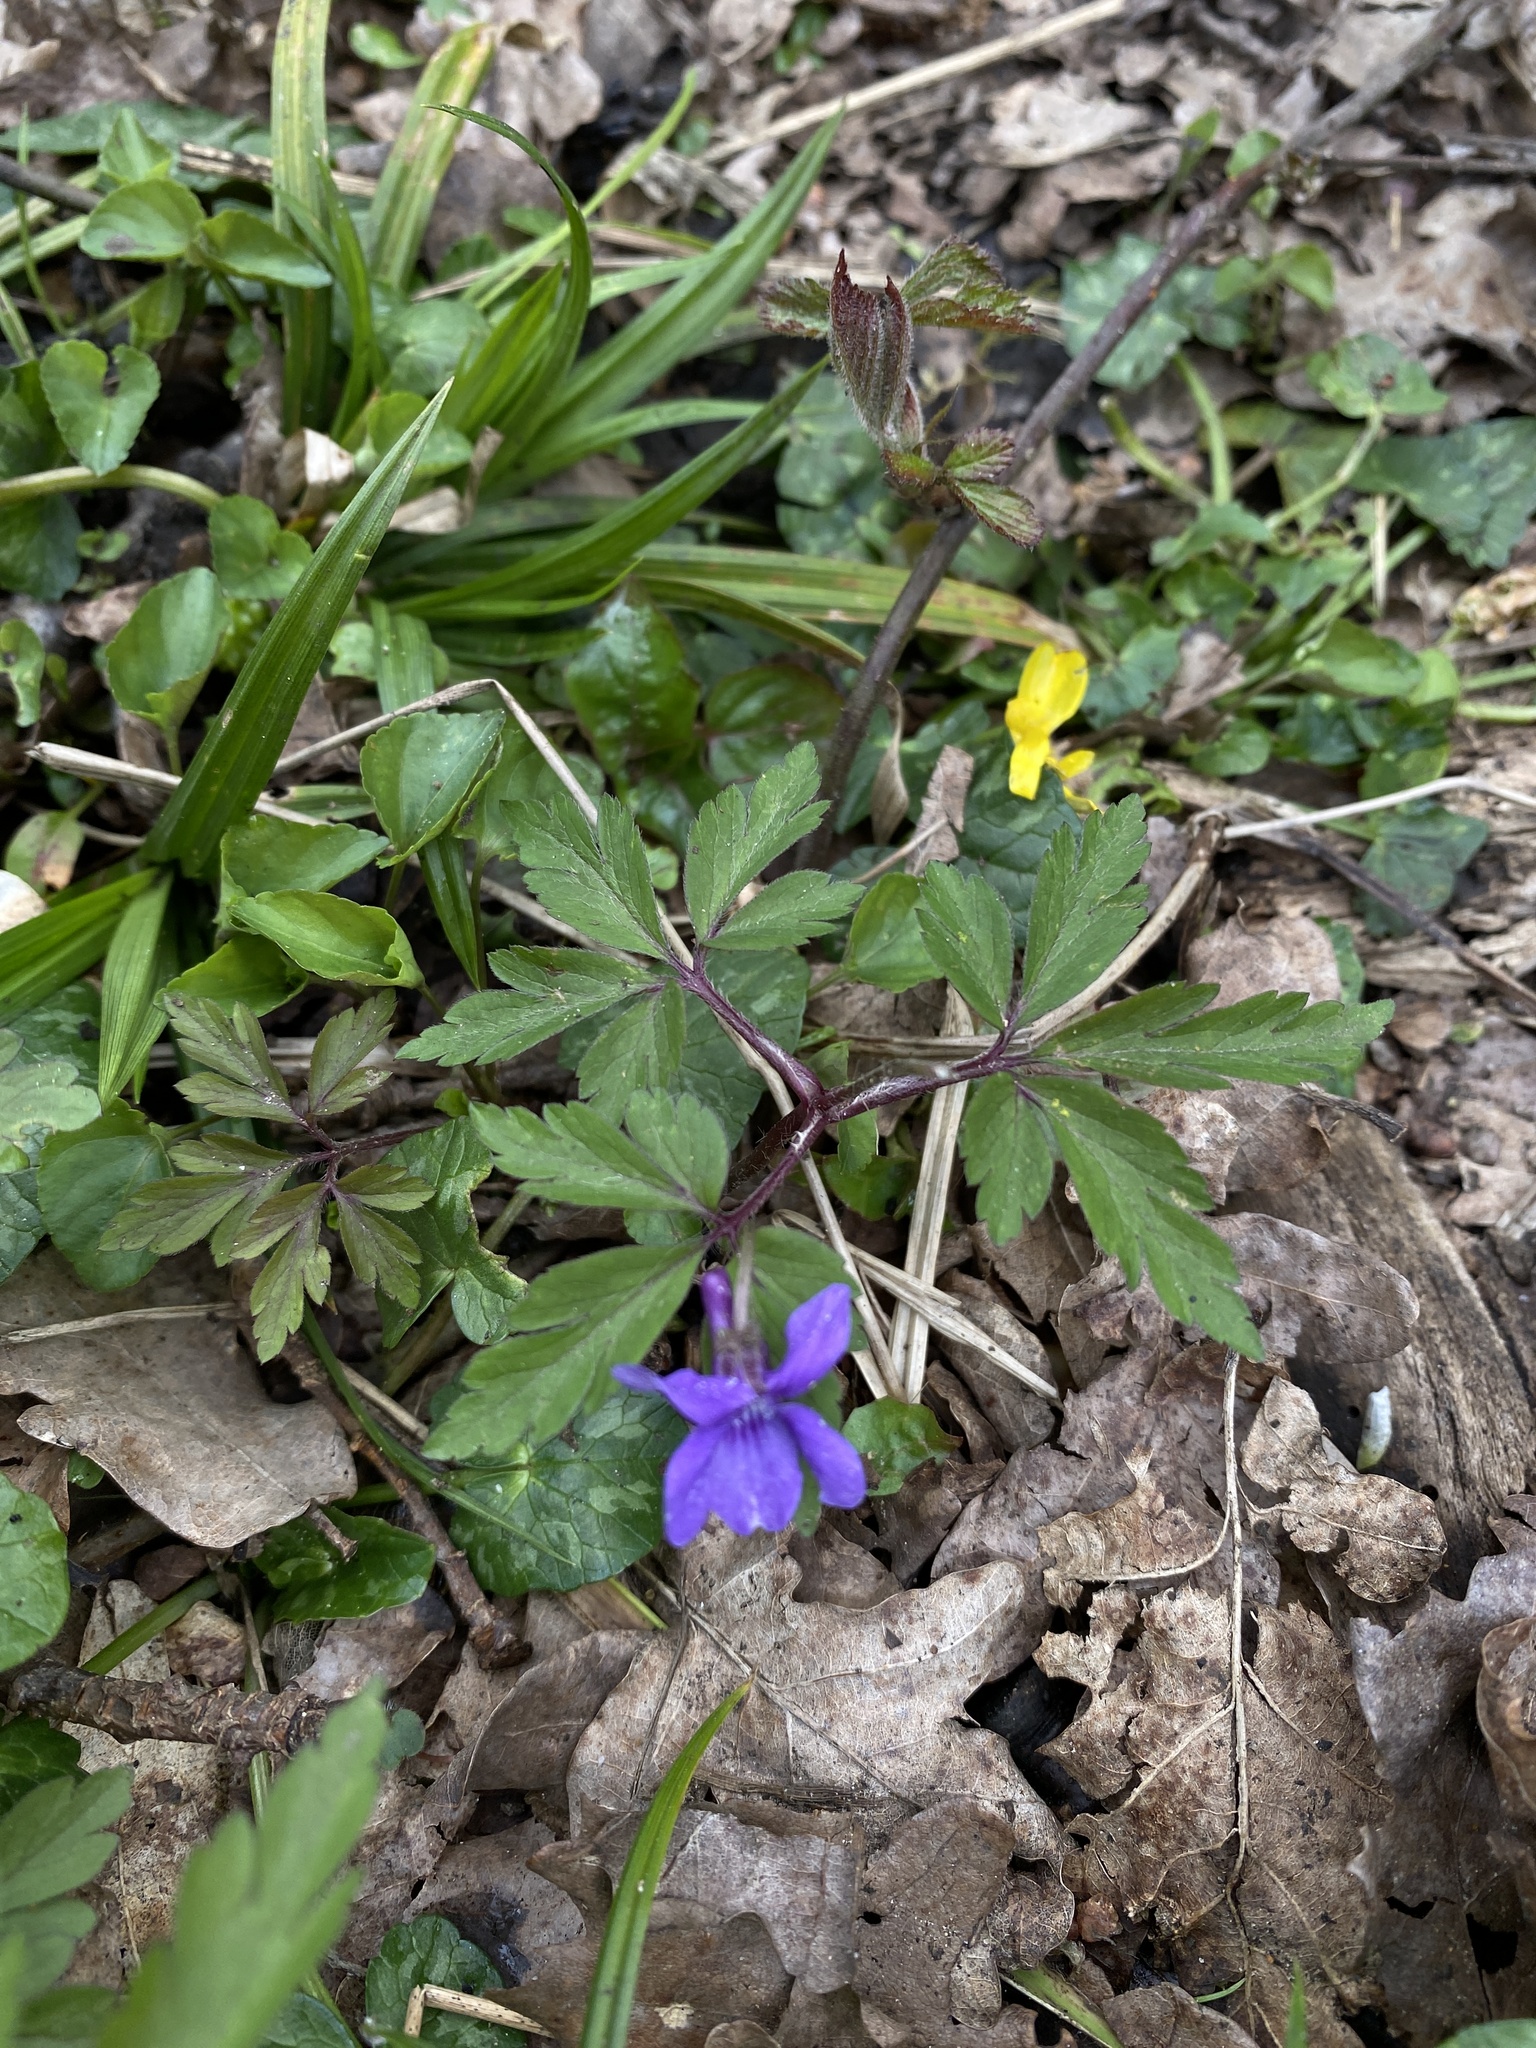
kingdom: Plantae
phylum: Tracheophyta
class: Magnoliopsida
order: Malpighiales
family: Violaceae
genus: Viola
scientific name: Viola reichenbachiana
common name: Early dog-violet
